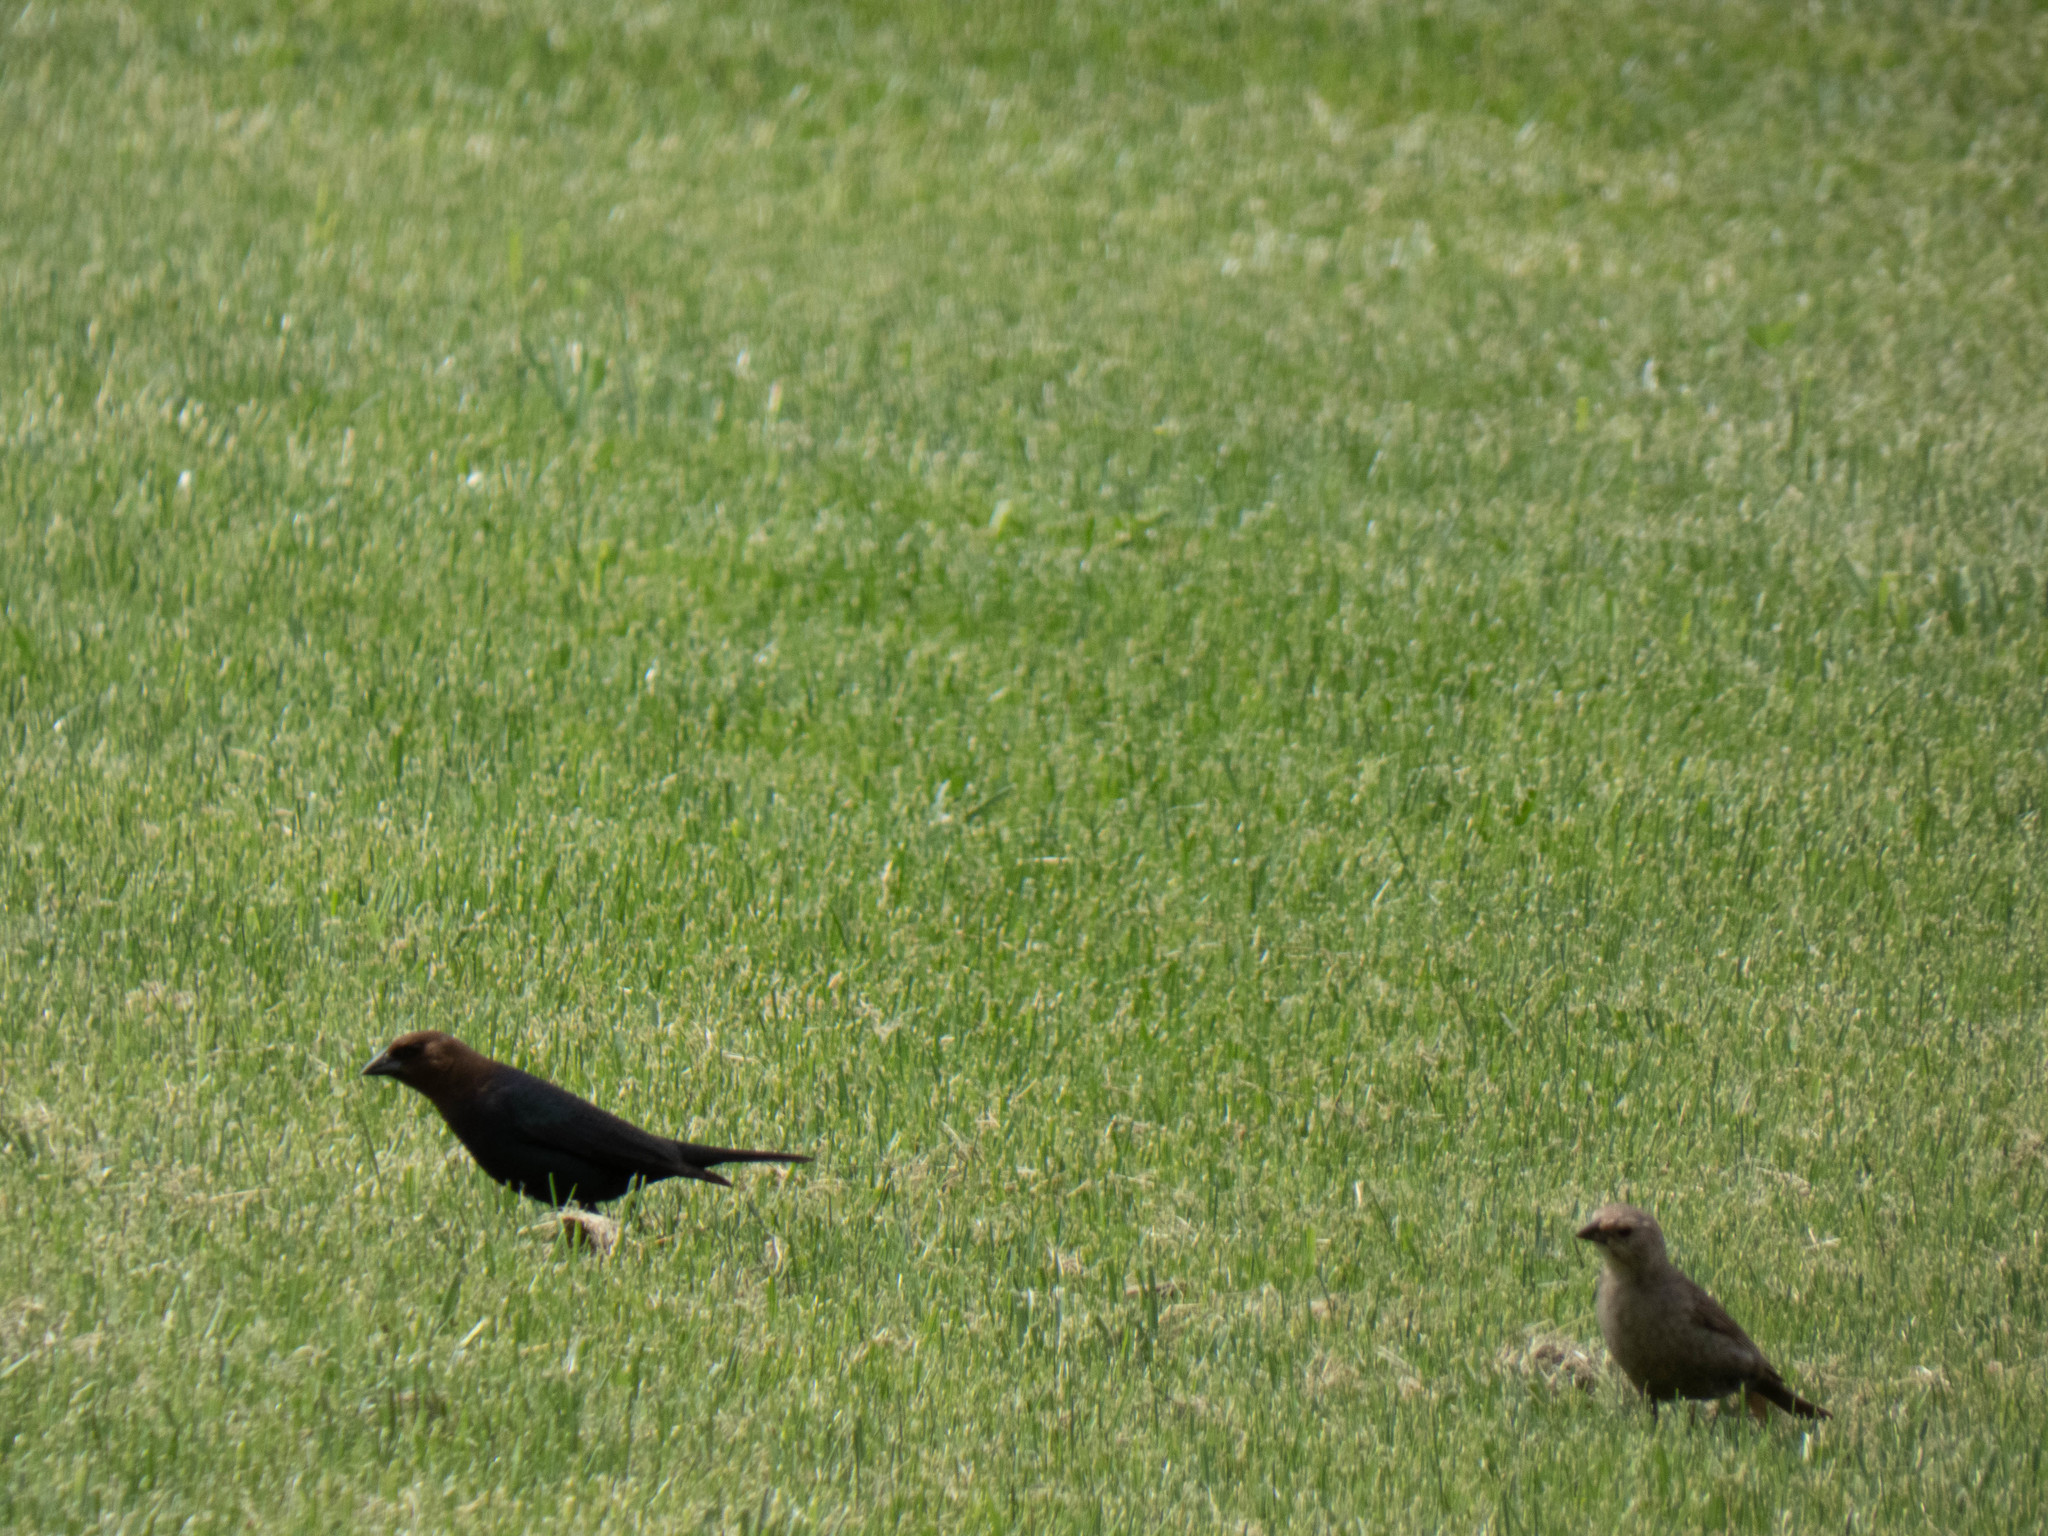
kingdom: Animalia
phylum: Chordata
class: Aves
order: Passeriformes
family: Icteridae
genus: Molothrus
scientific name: Molothrus ater
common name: Brown-headed cowbird
